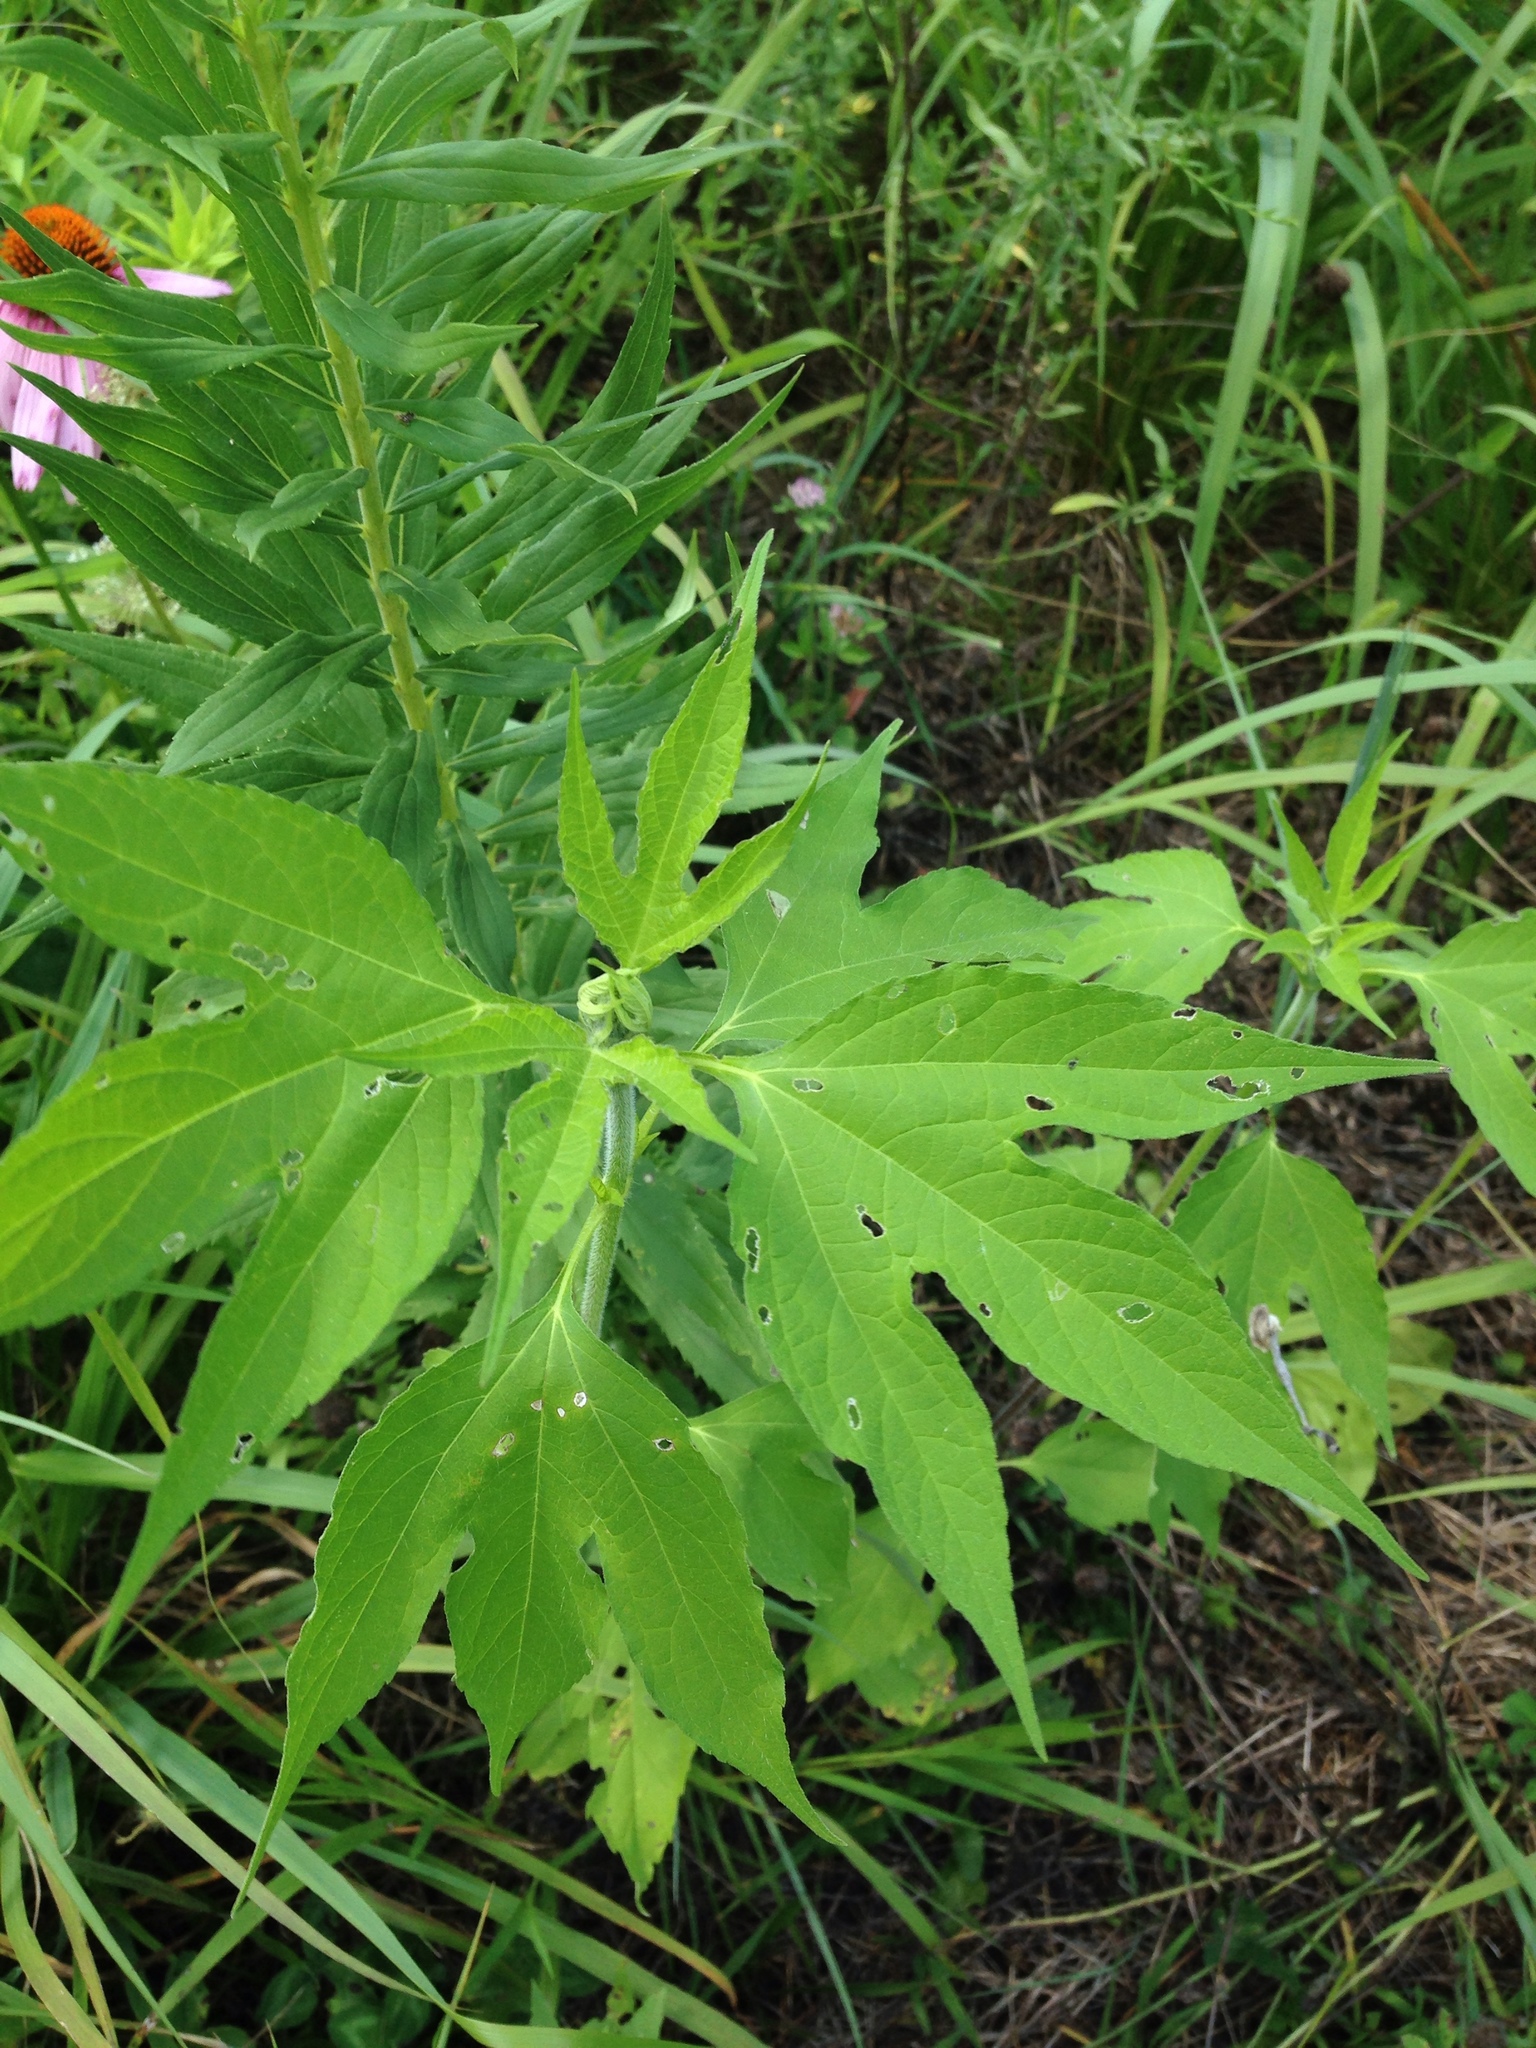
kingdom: Plantae
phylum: Tracheophyta
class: Magnoliopsida
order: Asterales
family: Asteraceae
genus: Ambrosia
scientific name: Ambrosia trifida
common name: Giant ragweed
